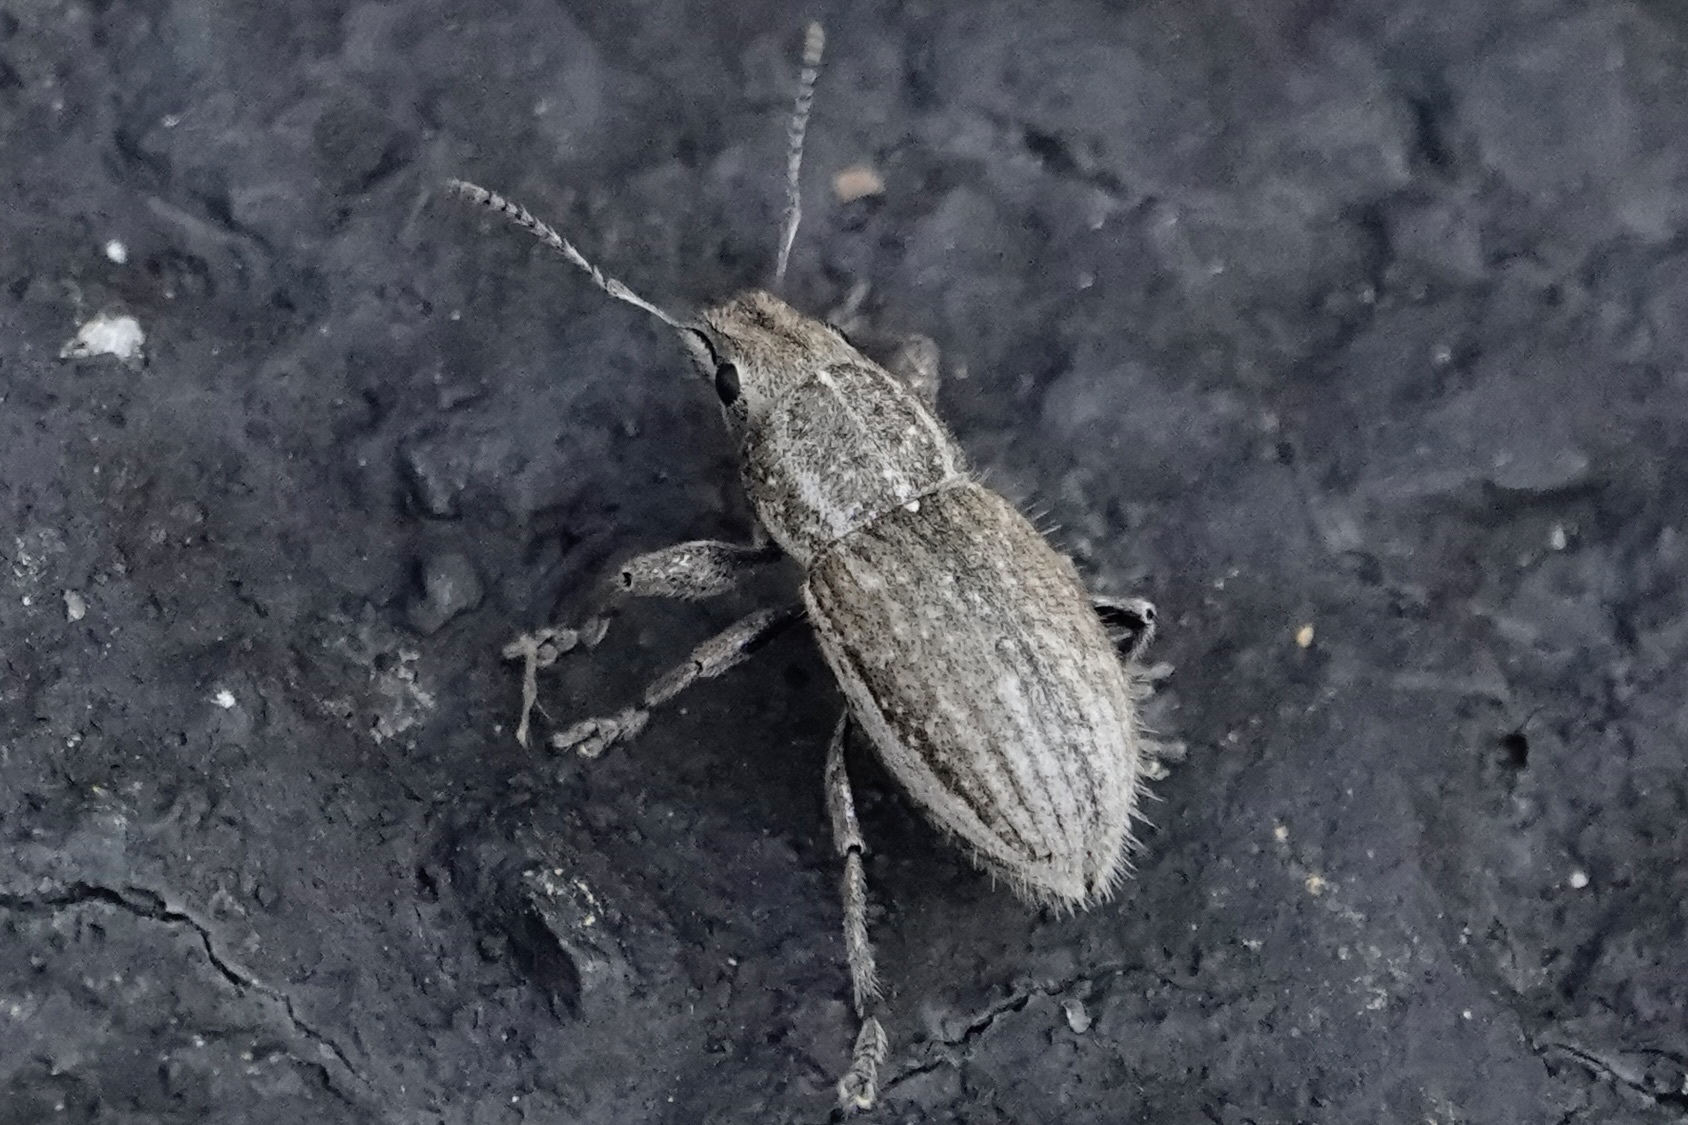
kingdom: Animalia
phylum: Arthropoda
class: Insecta
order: Coleoptera
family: Curculionidae
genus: Naupactus
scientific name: Naupactus leucoloma
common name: Whitefringed beetle
